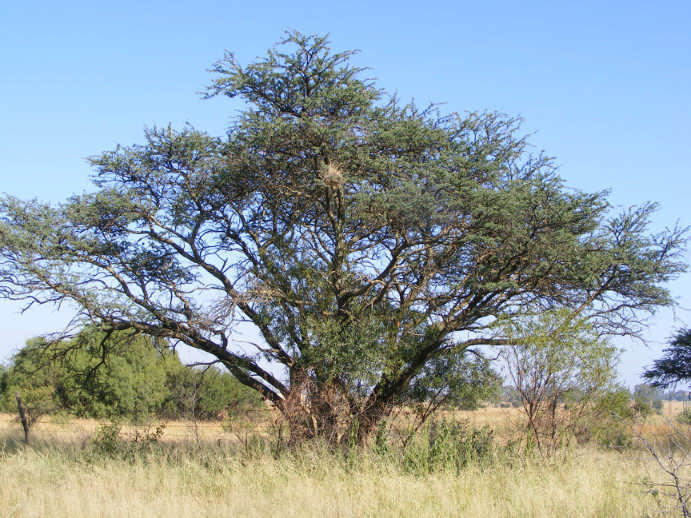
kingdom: Plantae
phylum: Tracheophyta
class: Magnoliopsida
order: Fabales
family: Fabaceae
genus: Vachellia
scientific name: Vachellia karroo
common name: Sweet thorn
